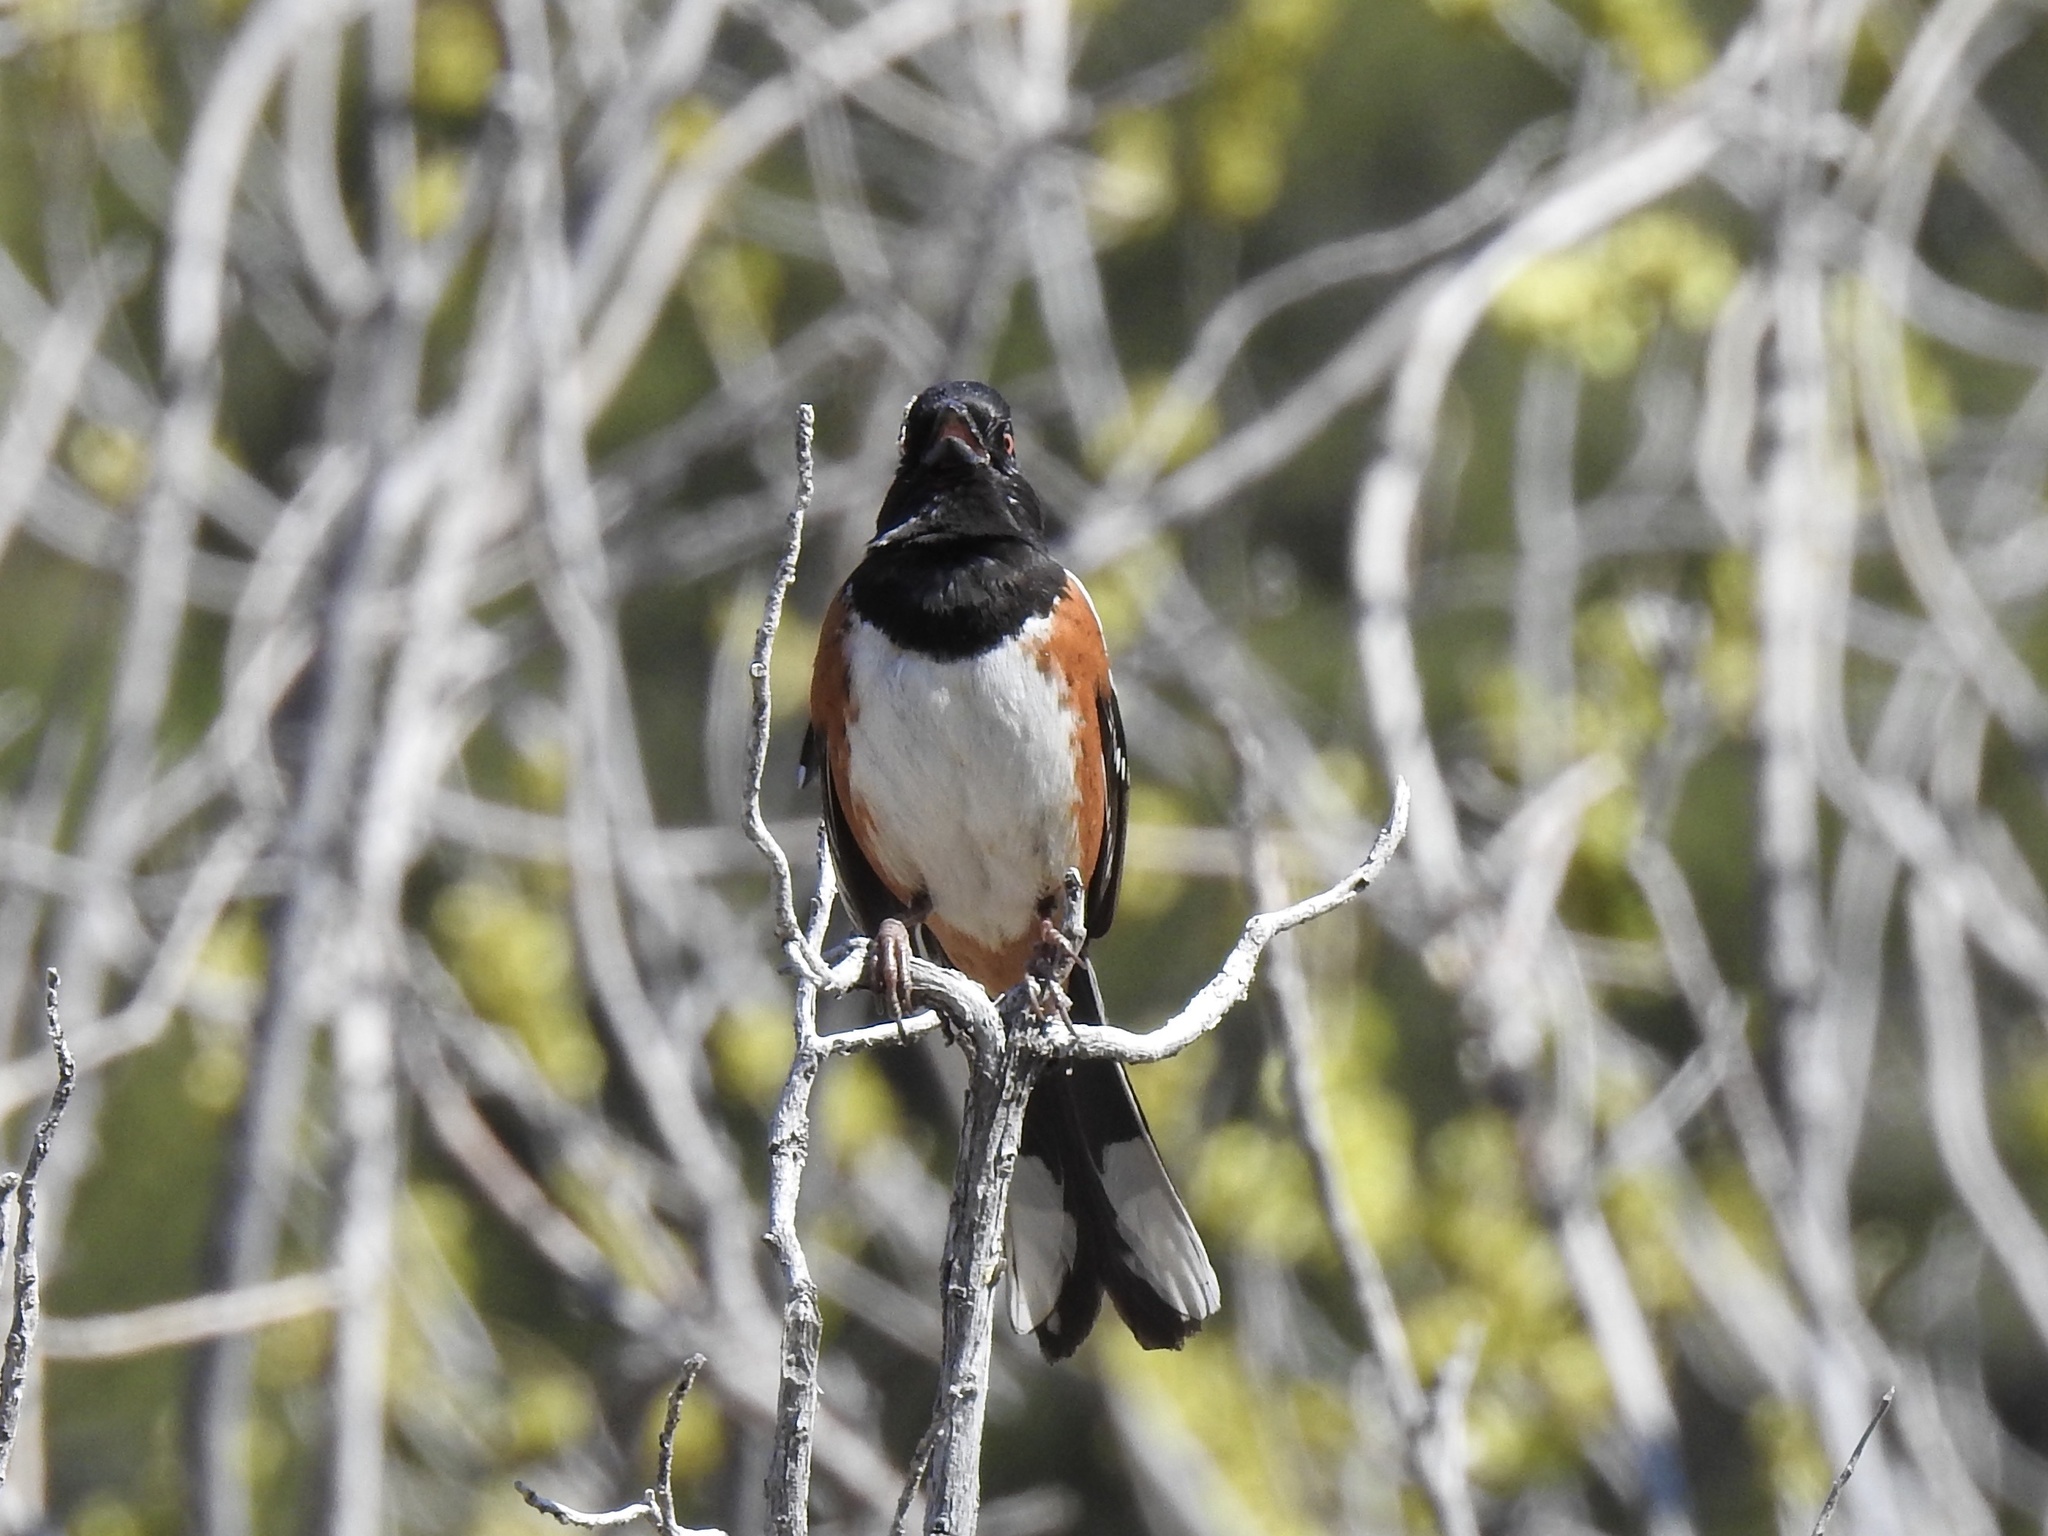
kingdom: Animalia
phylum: Chordata
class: Aves
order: Passeriformes
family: Passerellidae
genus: Pipilo
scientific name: Pipilo maculatus
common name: Spotted towhee
